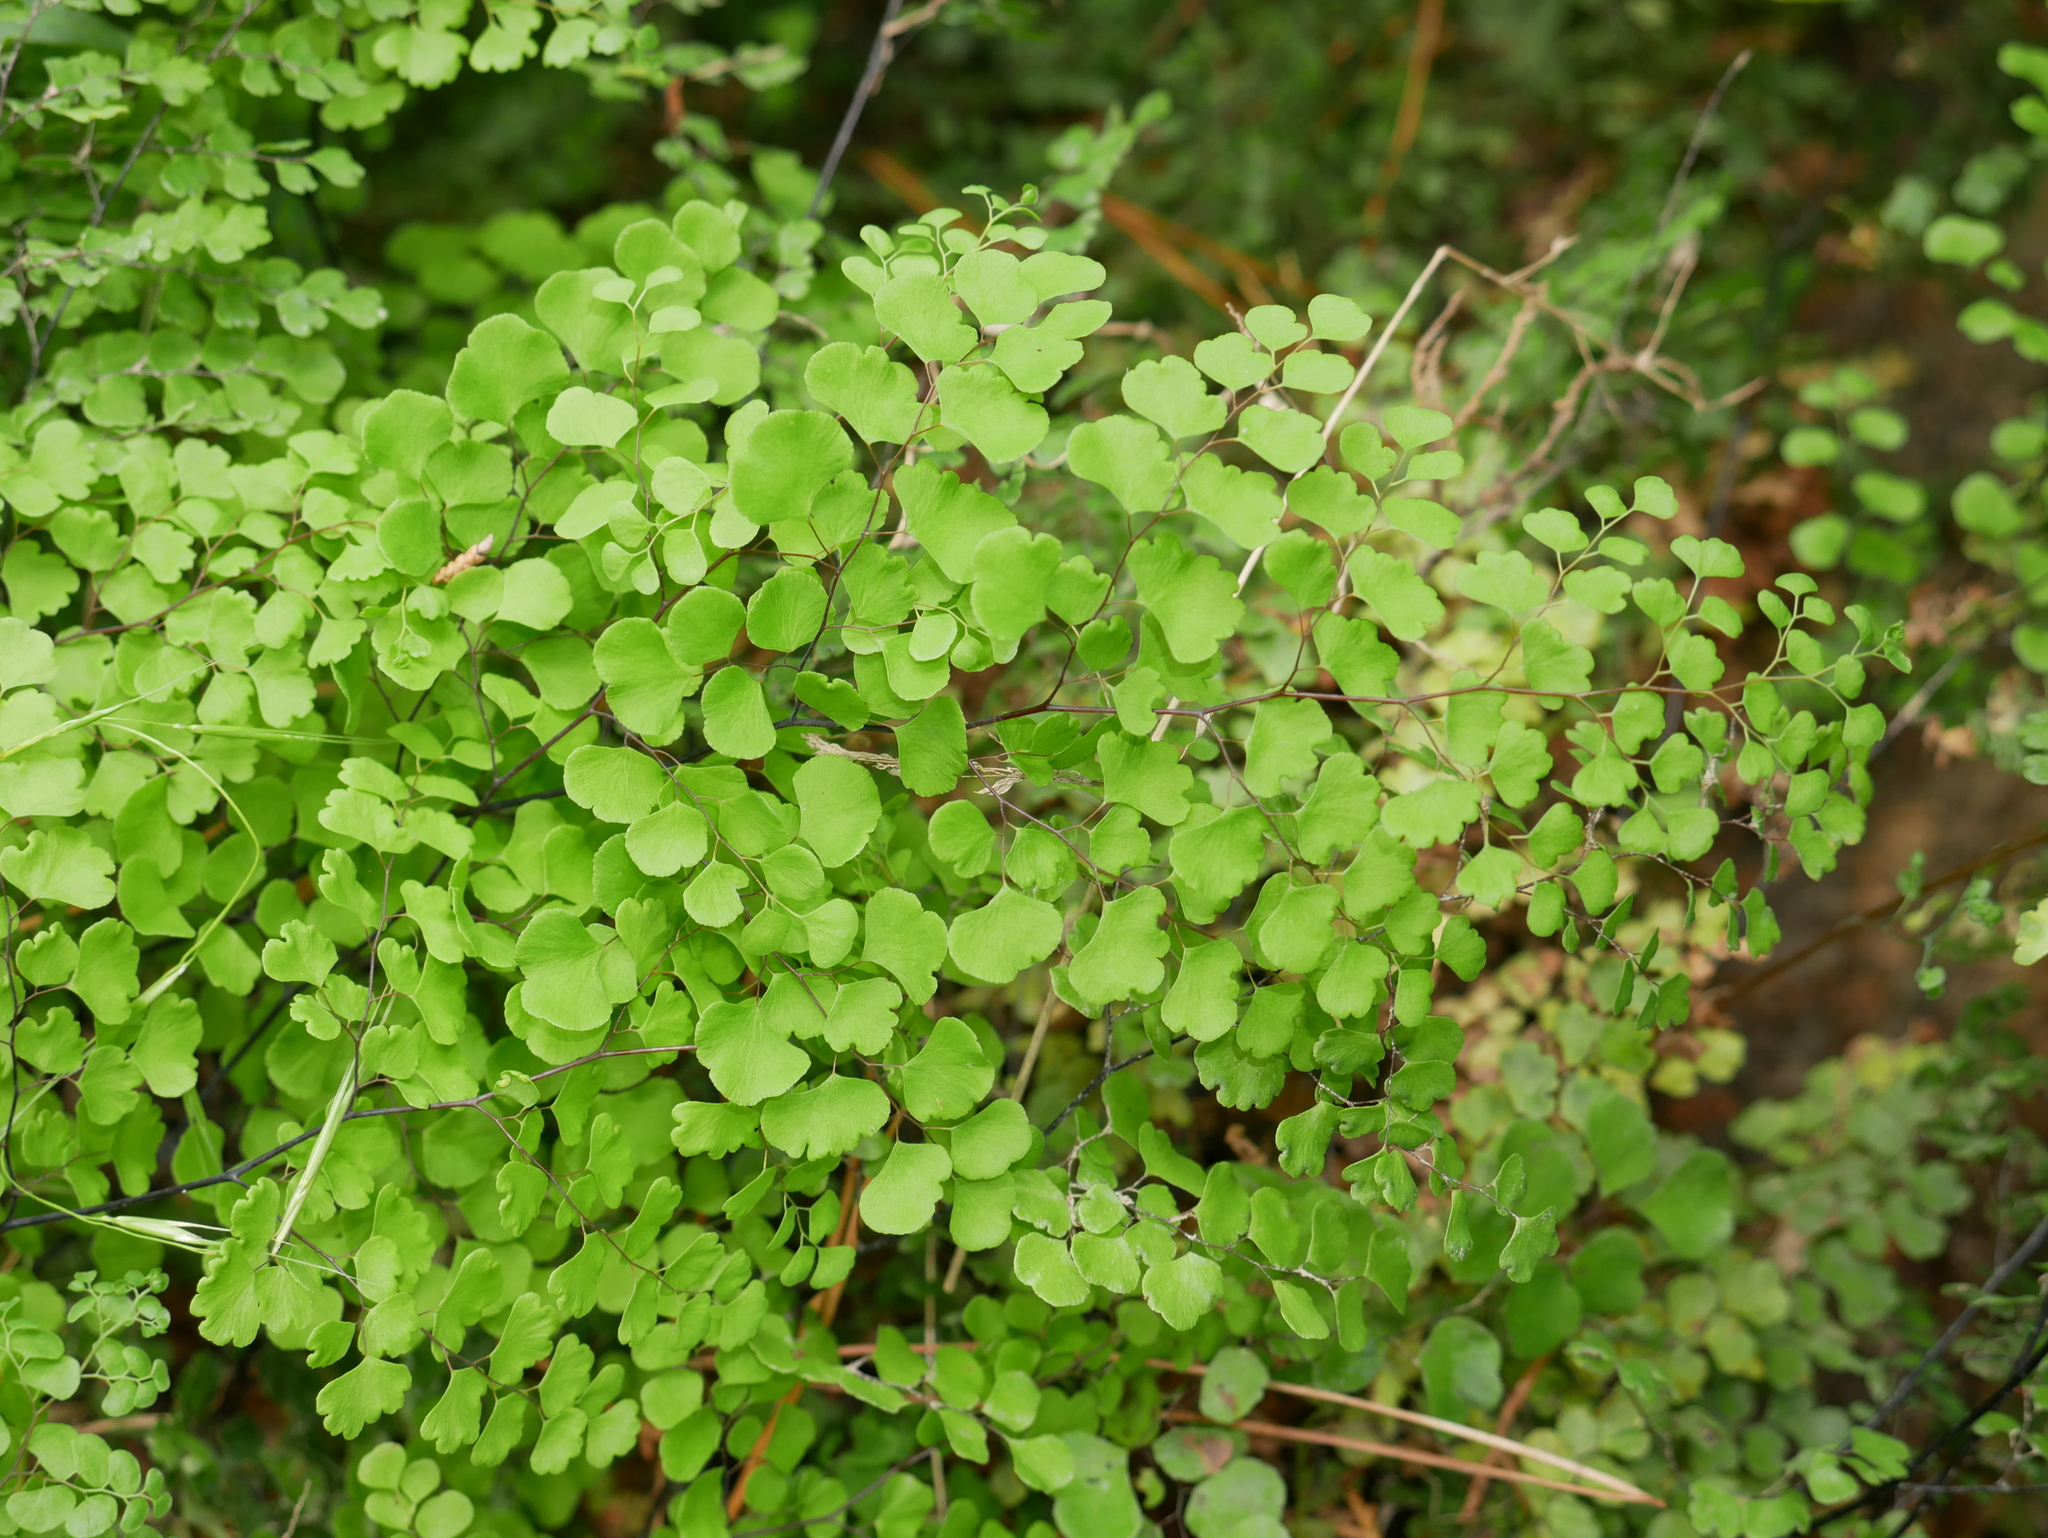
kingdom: Plantae
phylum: Tracheophyta
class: Polypodiopsida
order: Polypodiales
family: Pteridaceae
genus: Adiantum
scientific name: Adiantum aethiopicum
